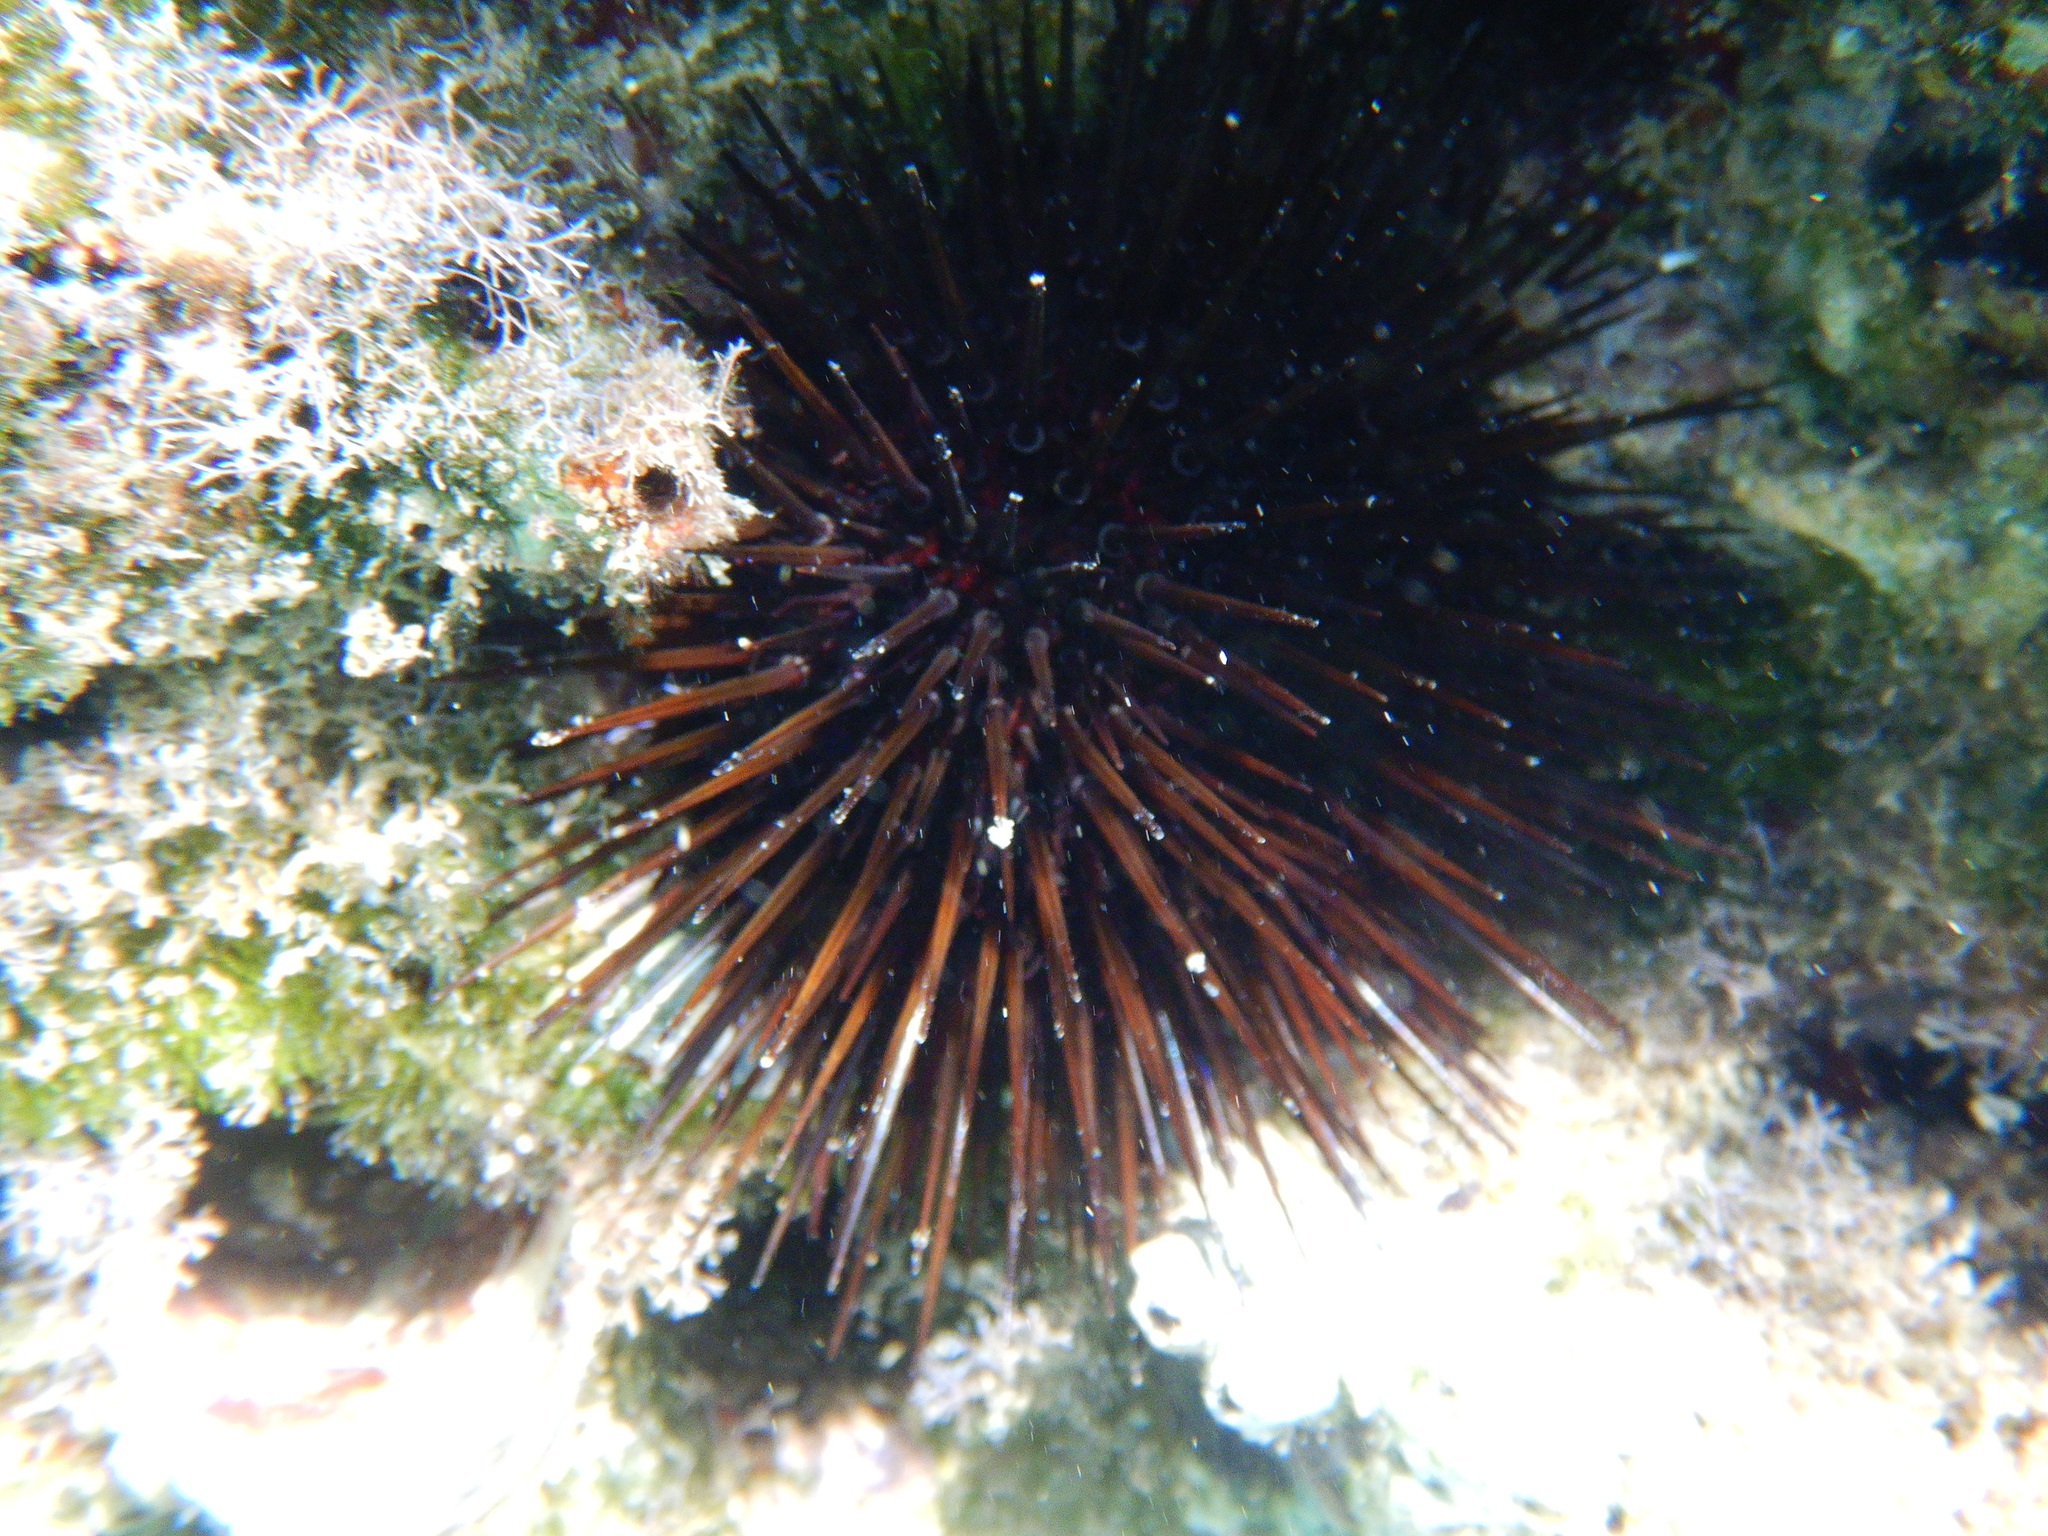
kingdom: Animalia
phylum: Echinodermata
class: Echinoidea
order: Camarodonta
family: Parechinidae
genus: Paracentrotus
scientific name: Paracentrotus lividus
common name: Purple sea urchin
